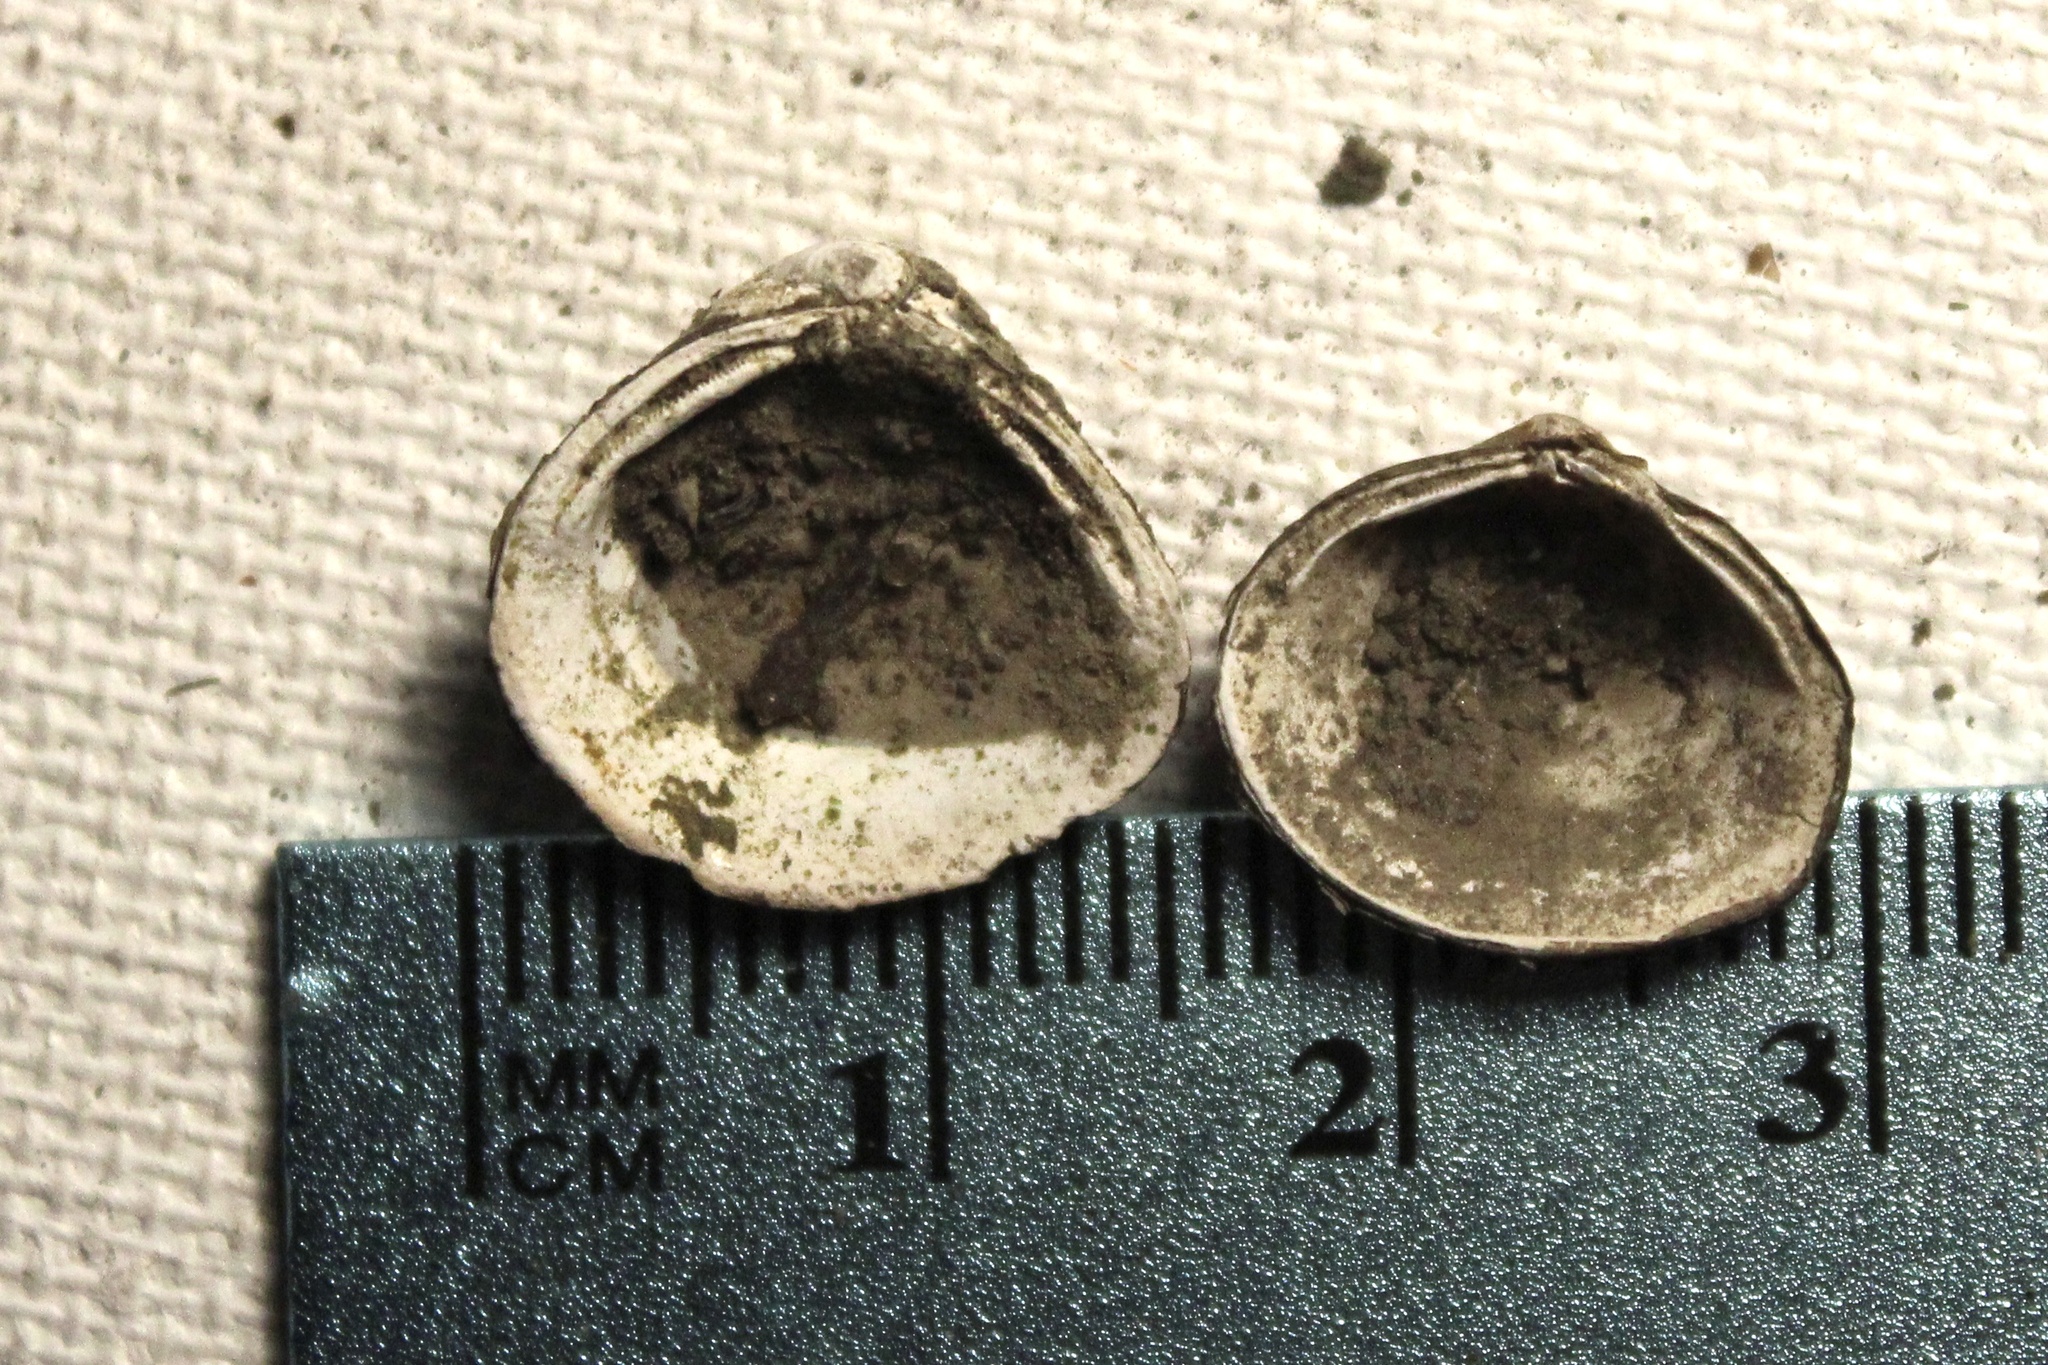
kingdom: Animalia
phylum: Mollusca
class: Bivalvia
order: Venerida
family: Cyrenidae
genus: Corbicula
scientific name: Corbicula fluminea
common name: Asian clam
